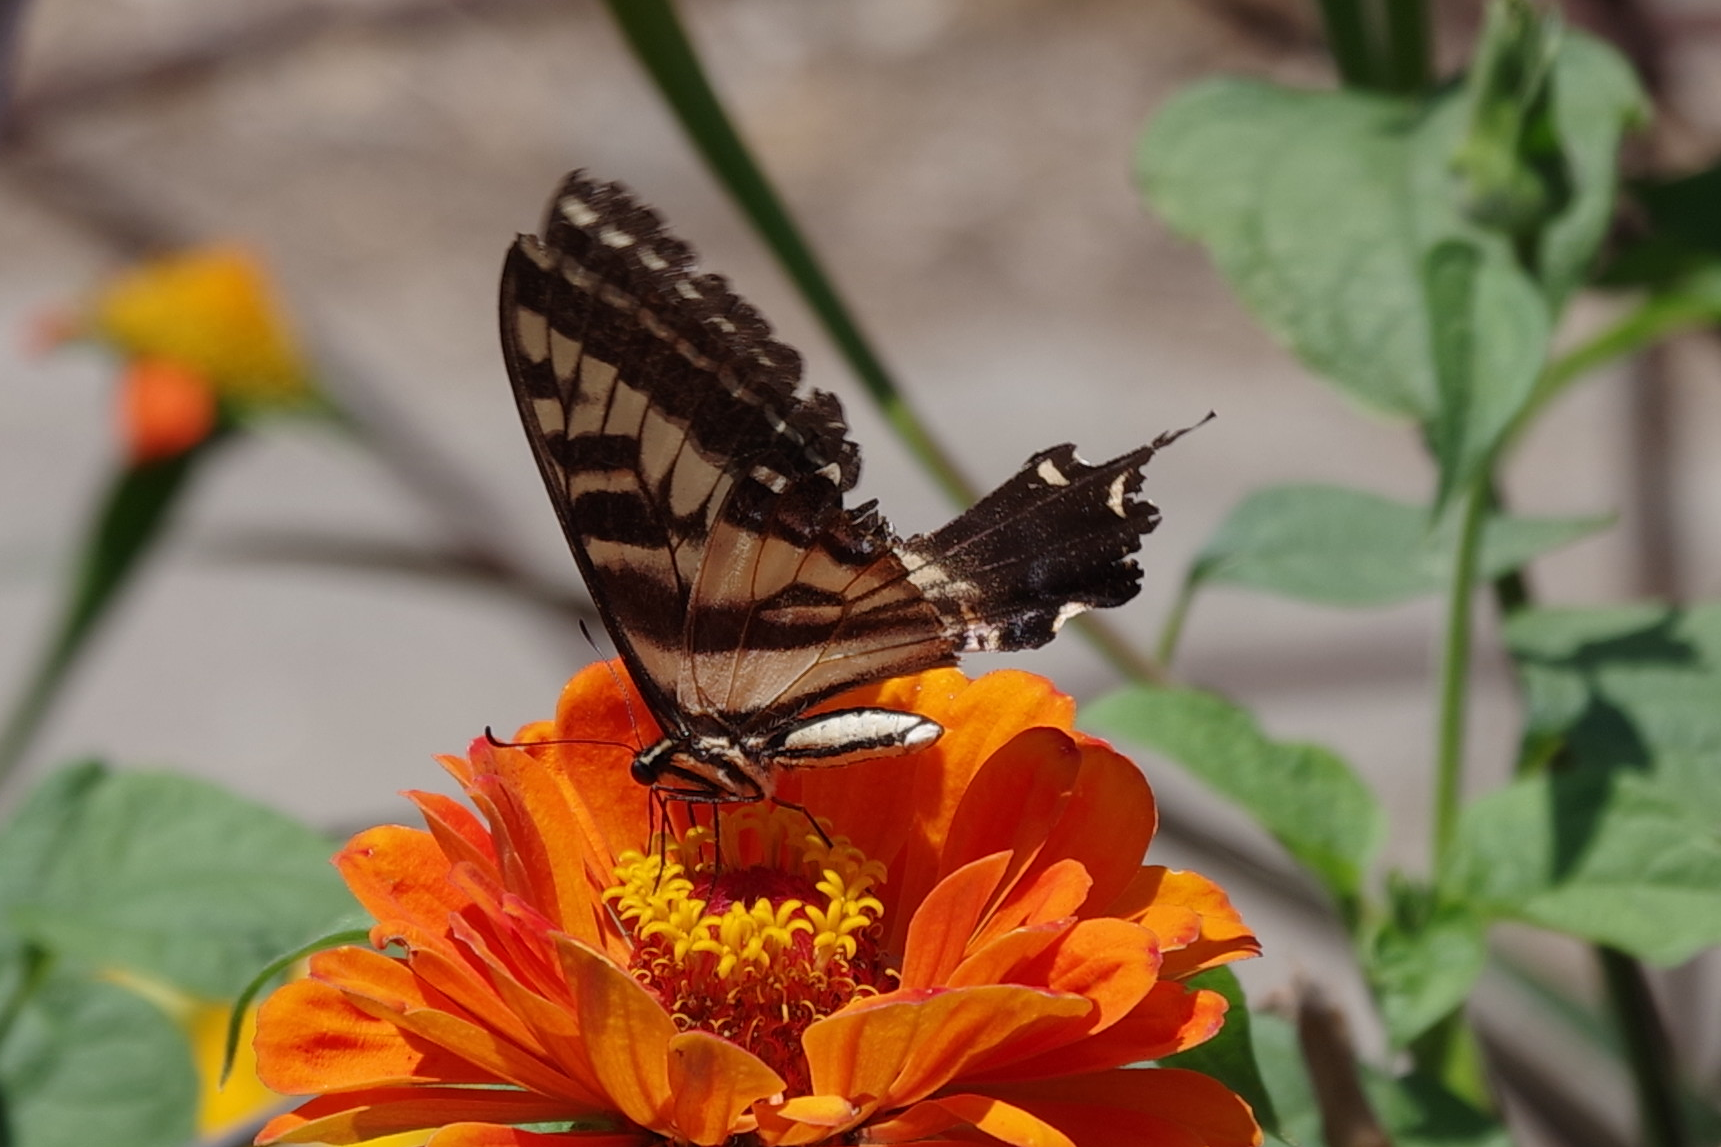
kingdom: Animalia
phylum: Arthropoda
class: Insecta
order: Lepidoptera
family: Papilionidae
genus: Papilio
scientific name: Papilio eurymedon
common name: Pale tiger swallowtail
